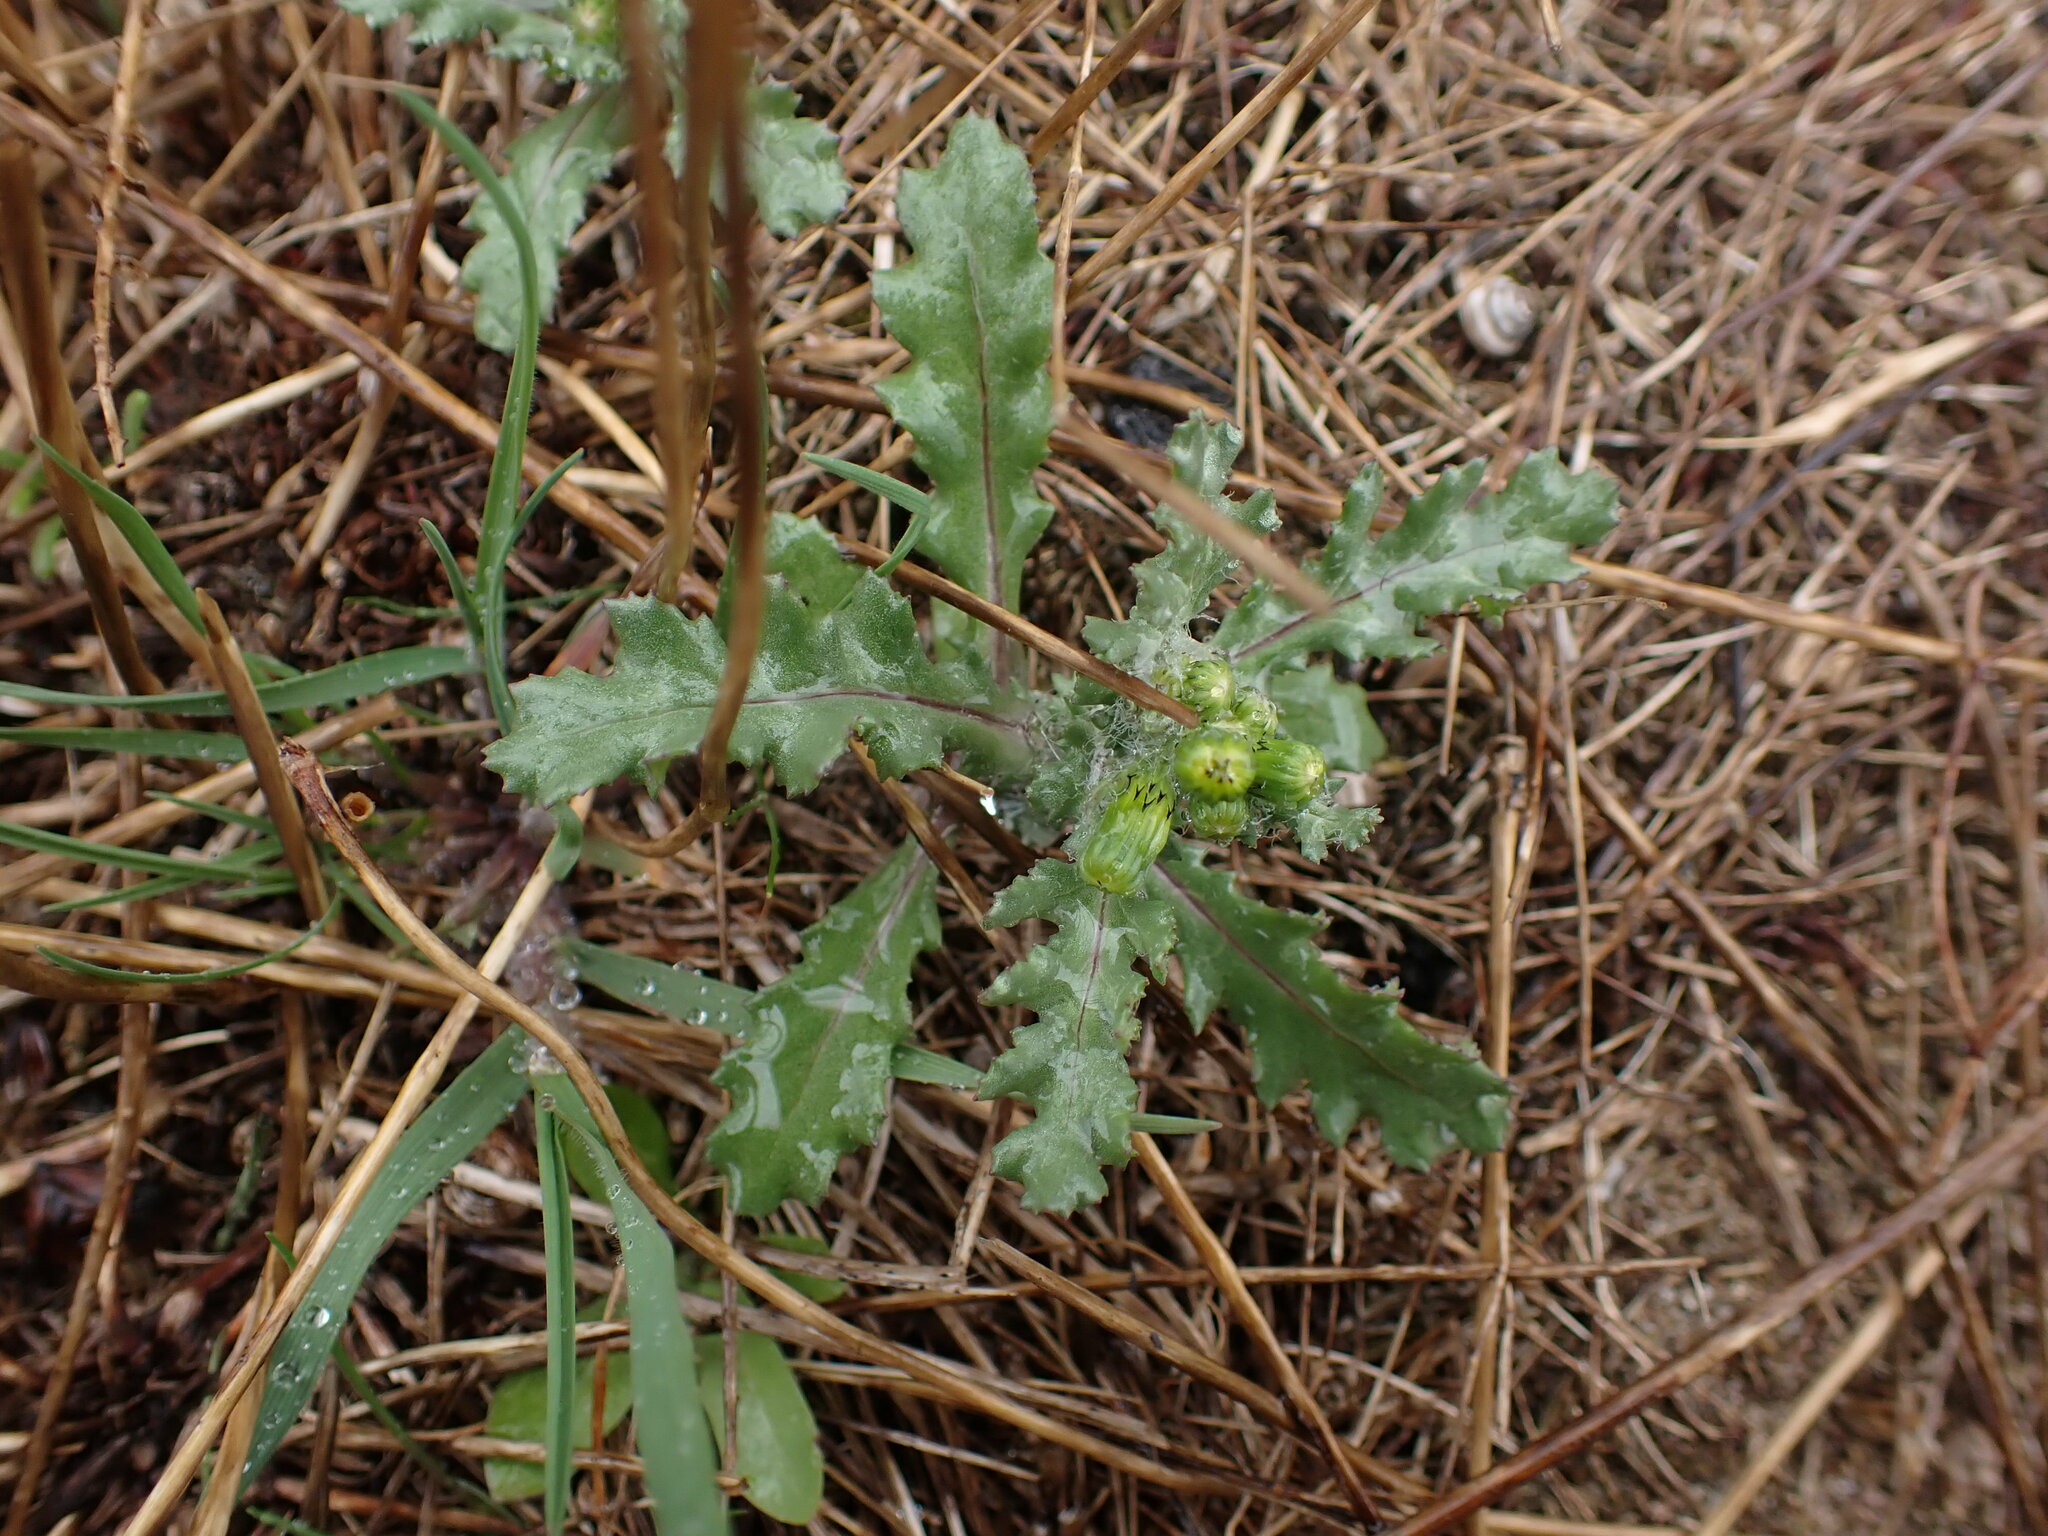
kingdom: Plantae
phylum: Tracheophyta
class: Magnoliopsida
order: Asterales
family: Asteraceae
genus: Senecio
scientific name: Senecio vulgaris
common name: Old-man-in-the-spring
